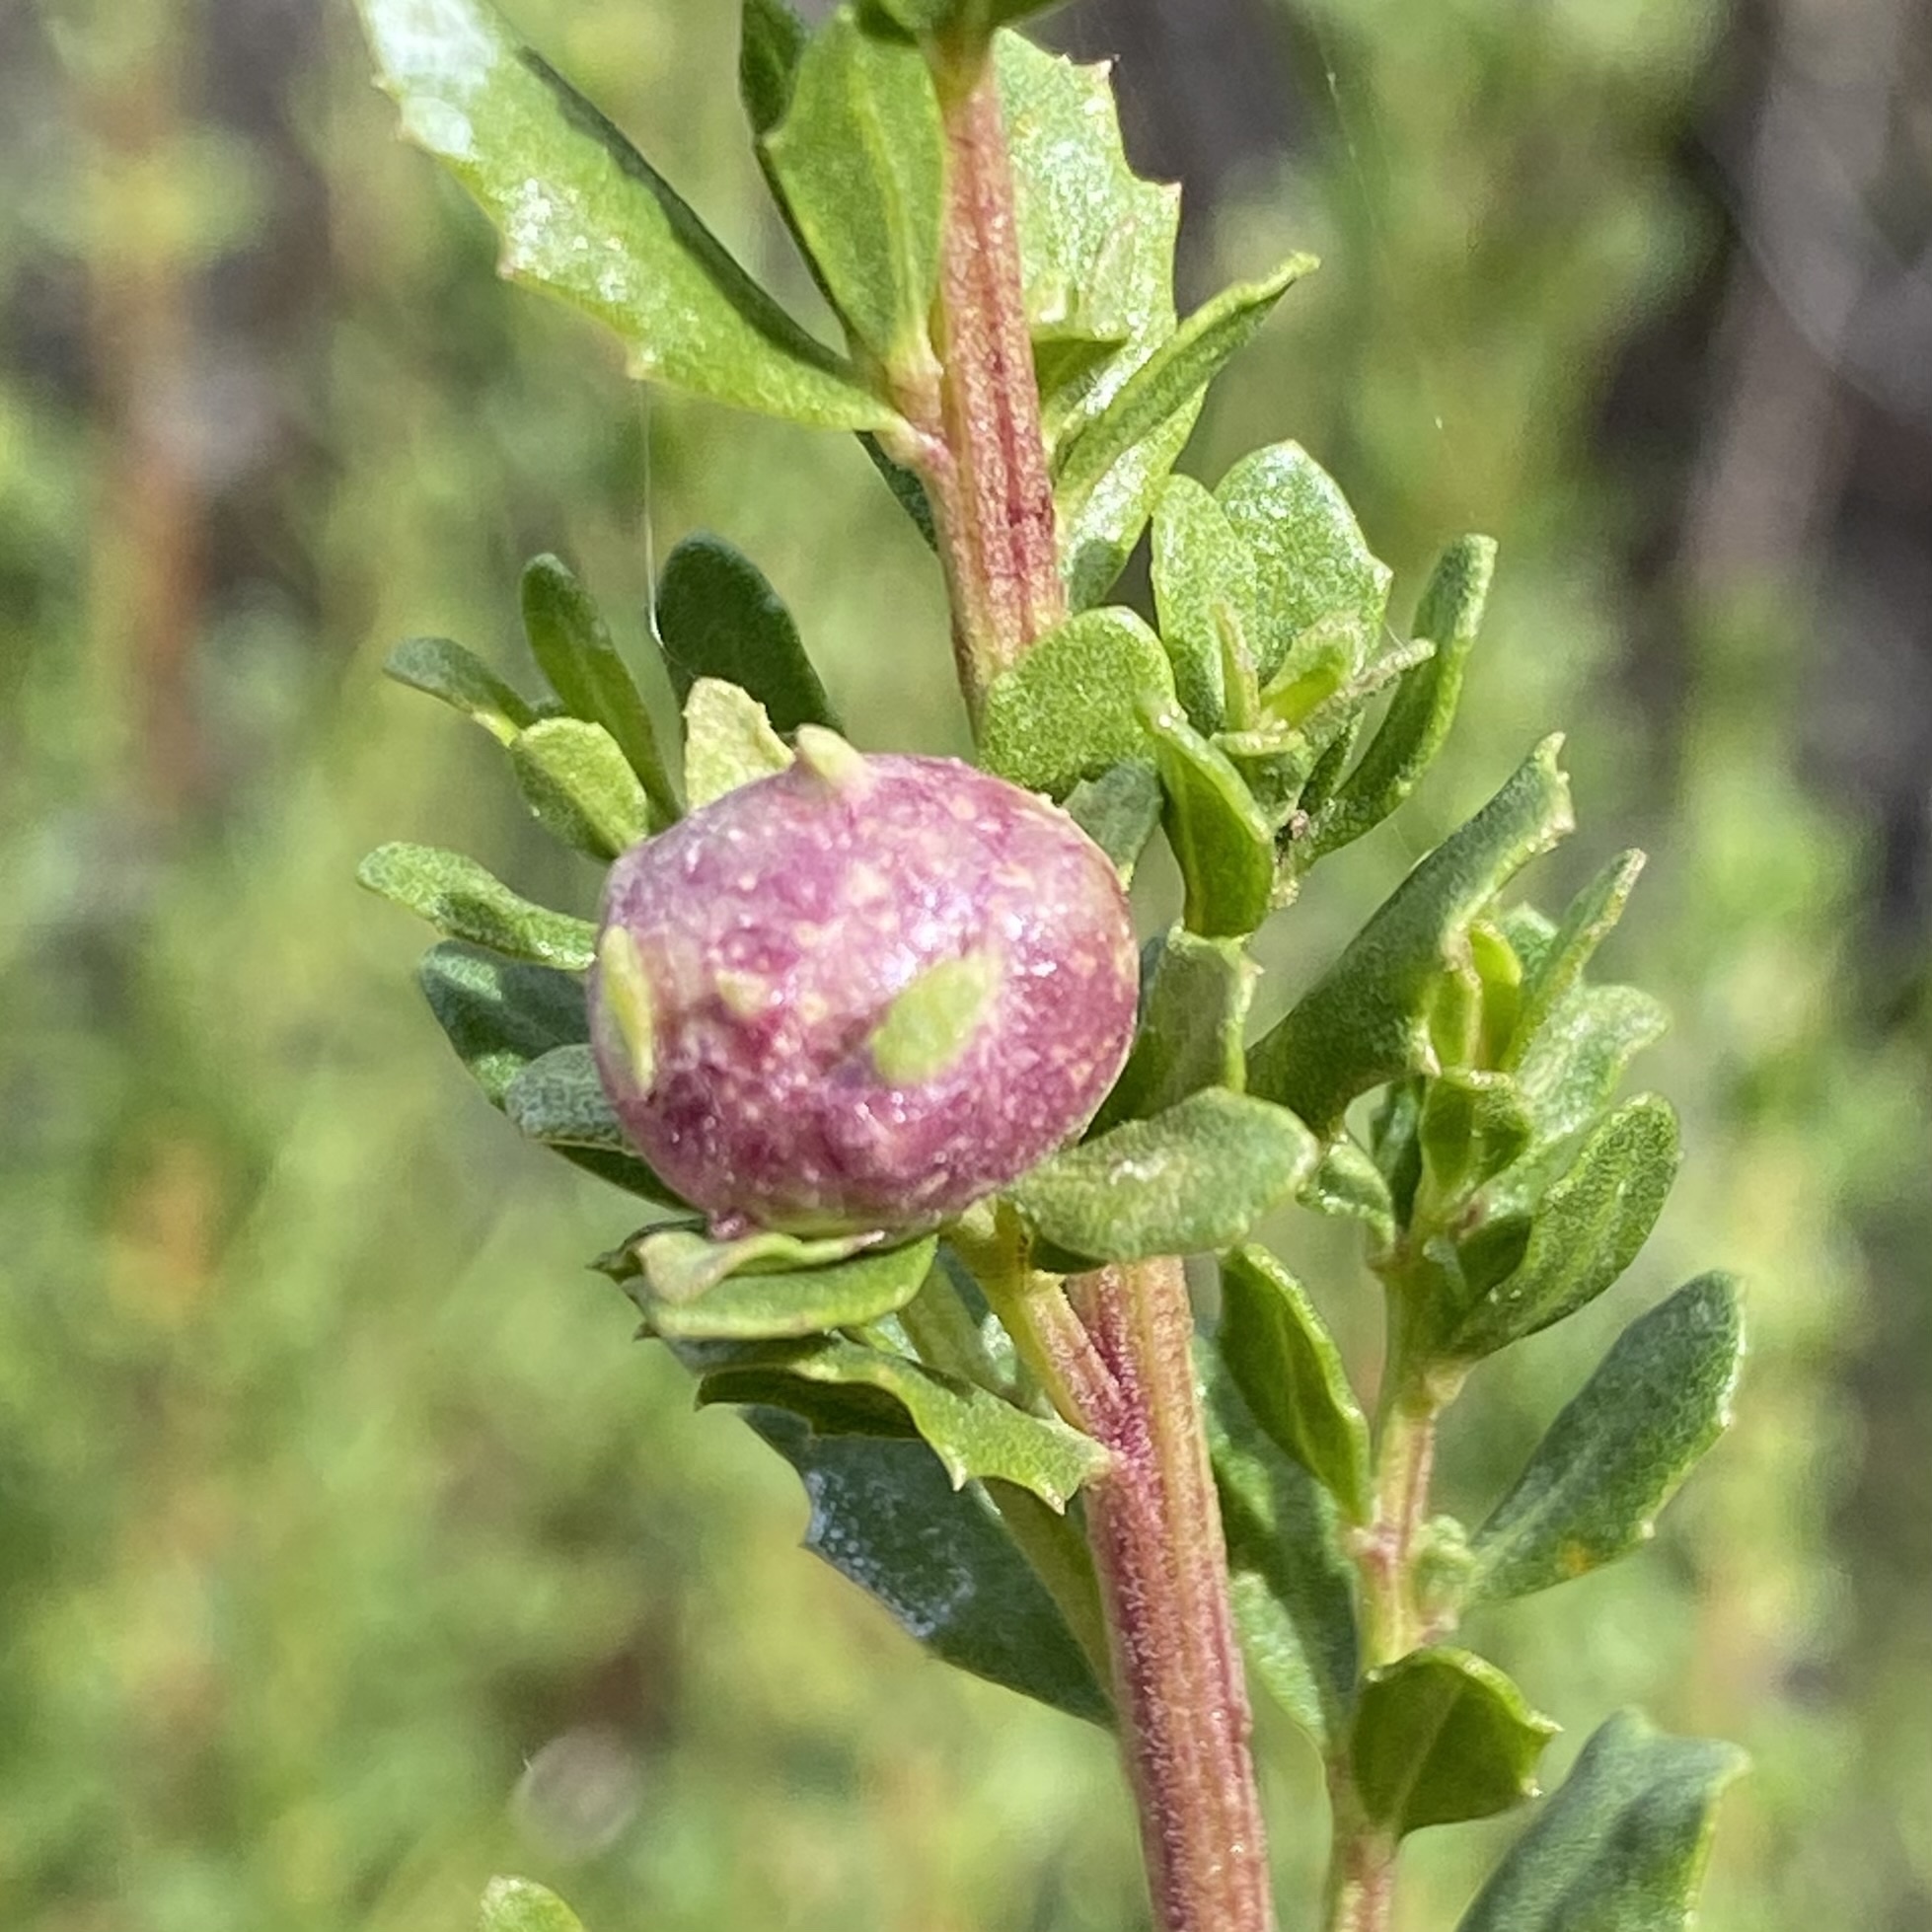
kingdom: Animalia
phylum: Arthropoda
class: Insecta
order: Diptera
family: Cecidomyiidae
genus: Rhopalomyia
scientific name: Rhopalomyia californica
